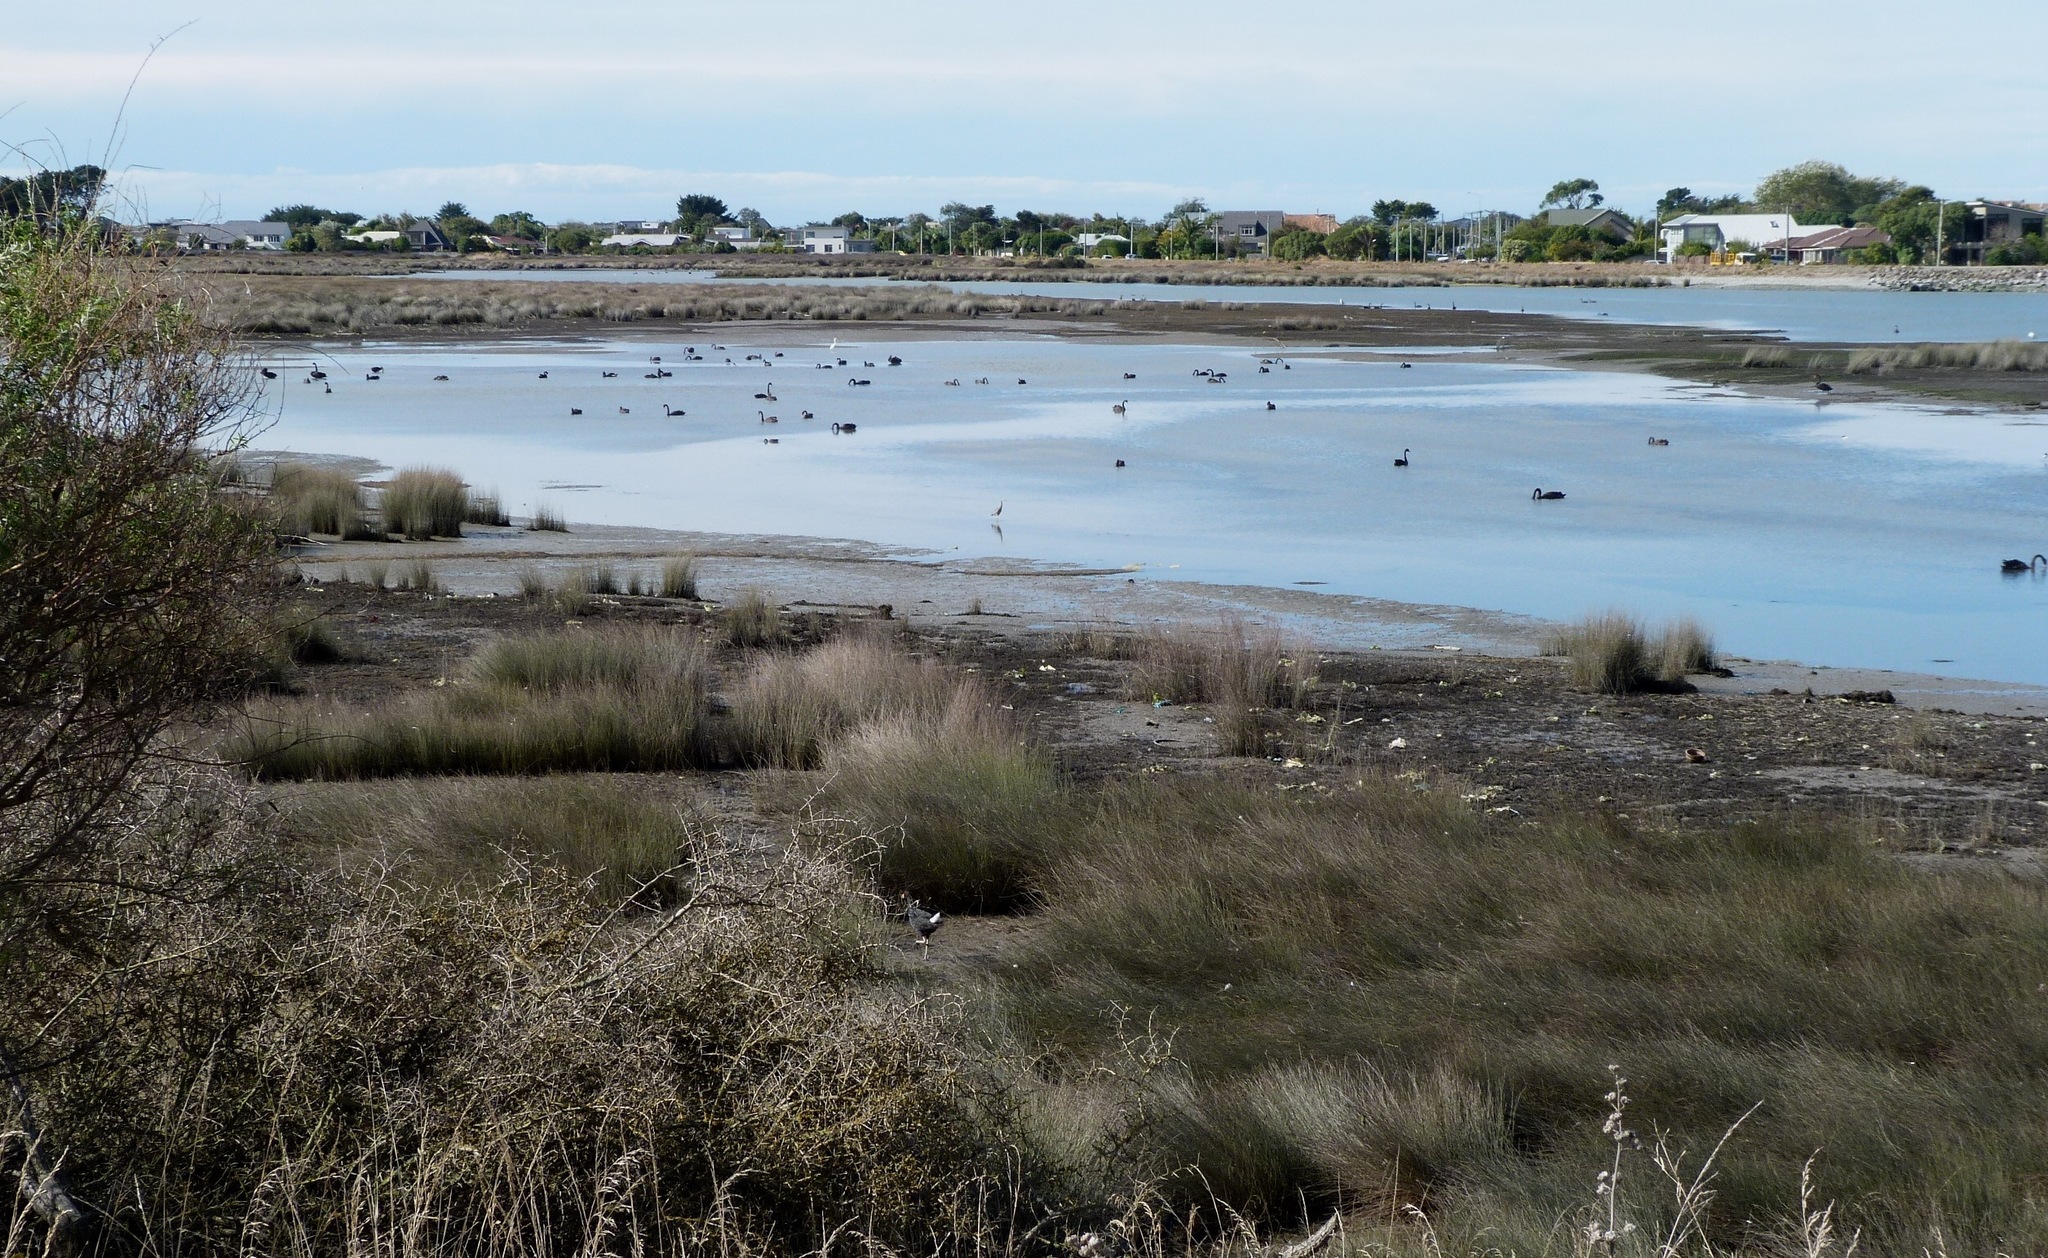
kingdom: Animalia
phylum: Chordata
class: Aves
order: Anseriformes
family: Anatidae
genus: Cygnus
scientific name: Cygnus atratus
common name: Black swan
